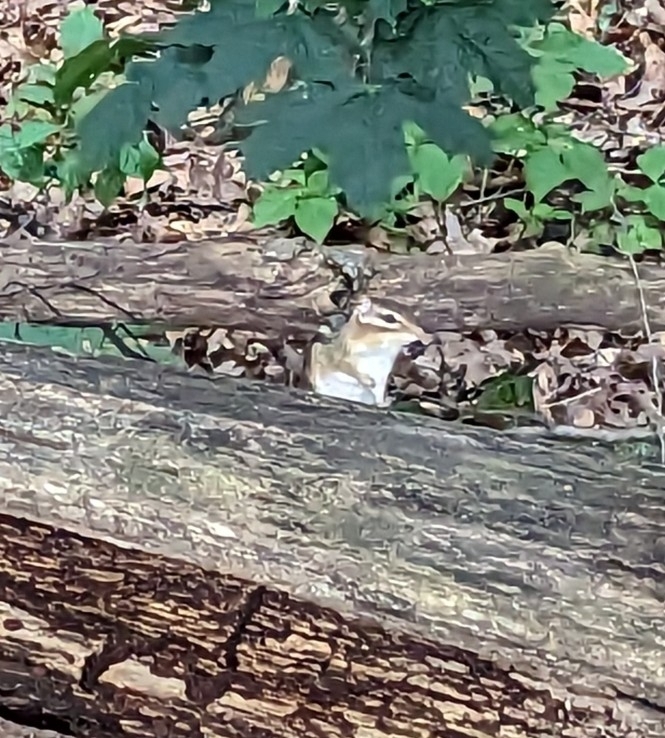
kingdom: Animalia
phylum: Chordata
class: Mammalia
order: Rodentia
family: Sciuridae
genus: Tamias
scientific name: Tamias striatus
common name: Eastern chipmunk
